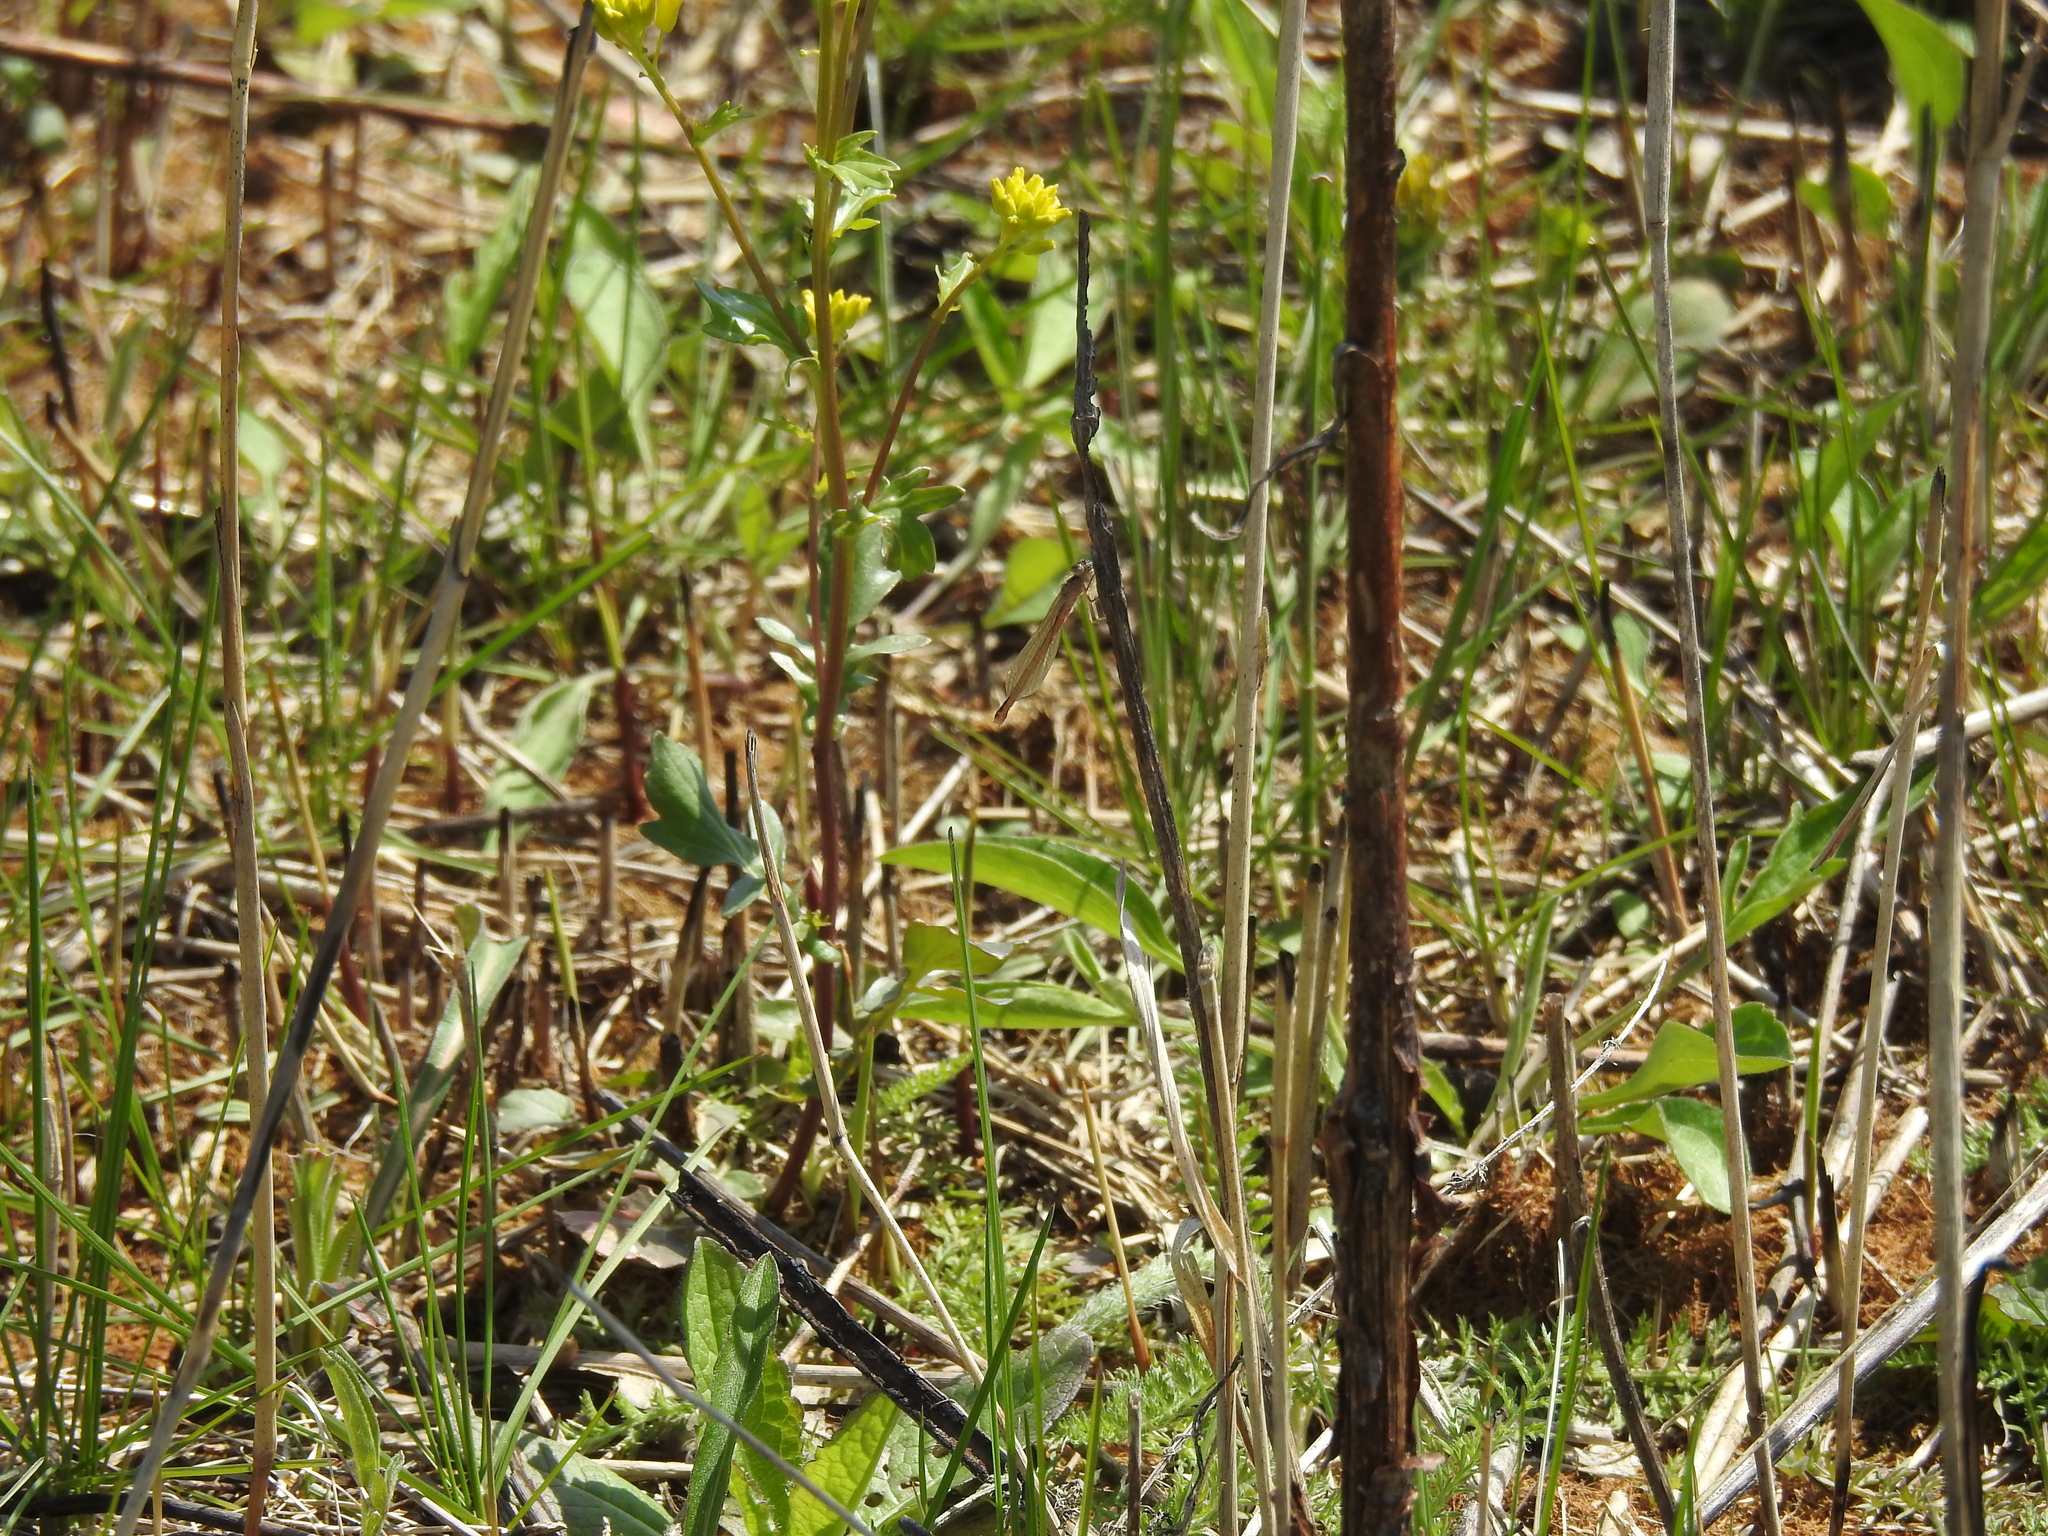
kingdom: Animalia
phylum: Arthropoda
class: Insecta
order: Odonata
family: Coenagrionidae
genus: Amphiagrion
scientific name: Amphiagrion saucium
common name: Eastern red damsel
